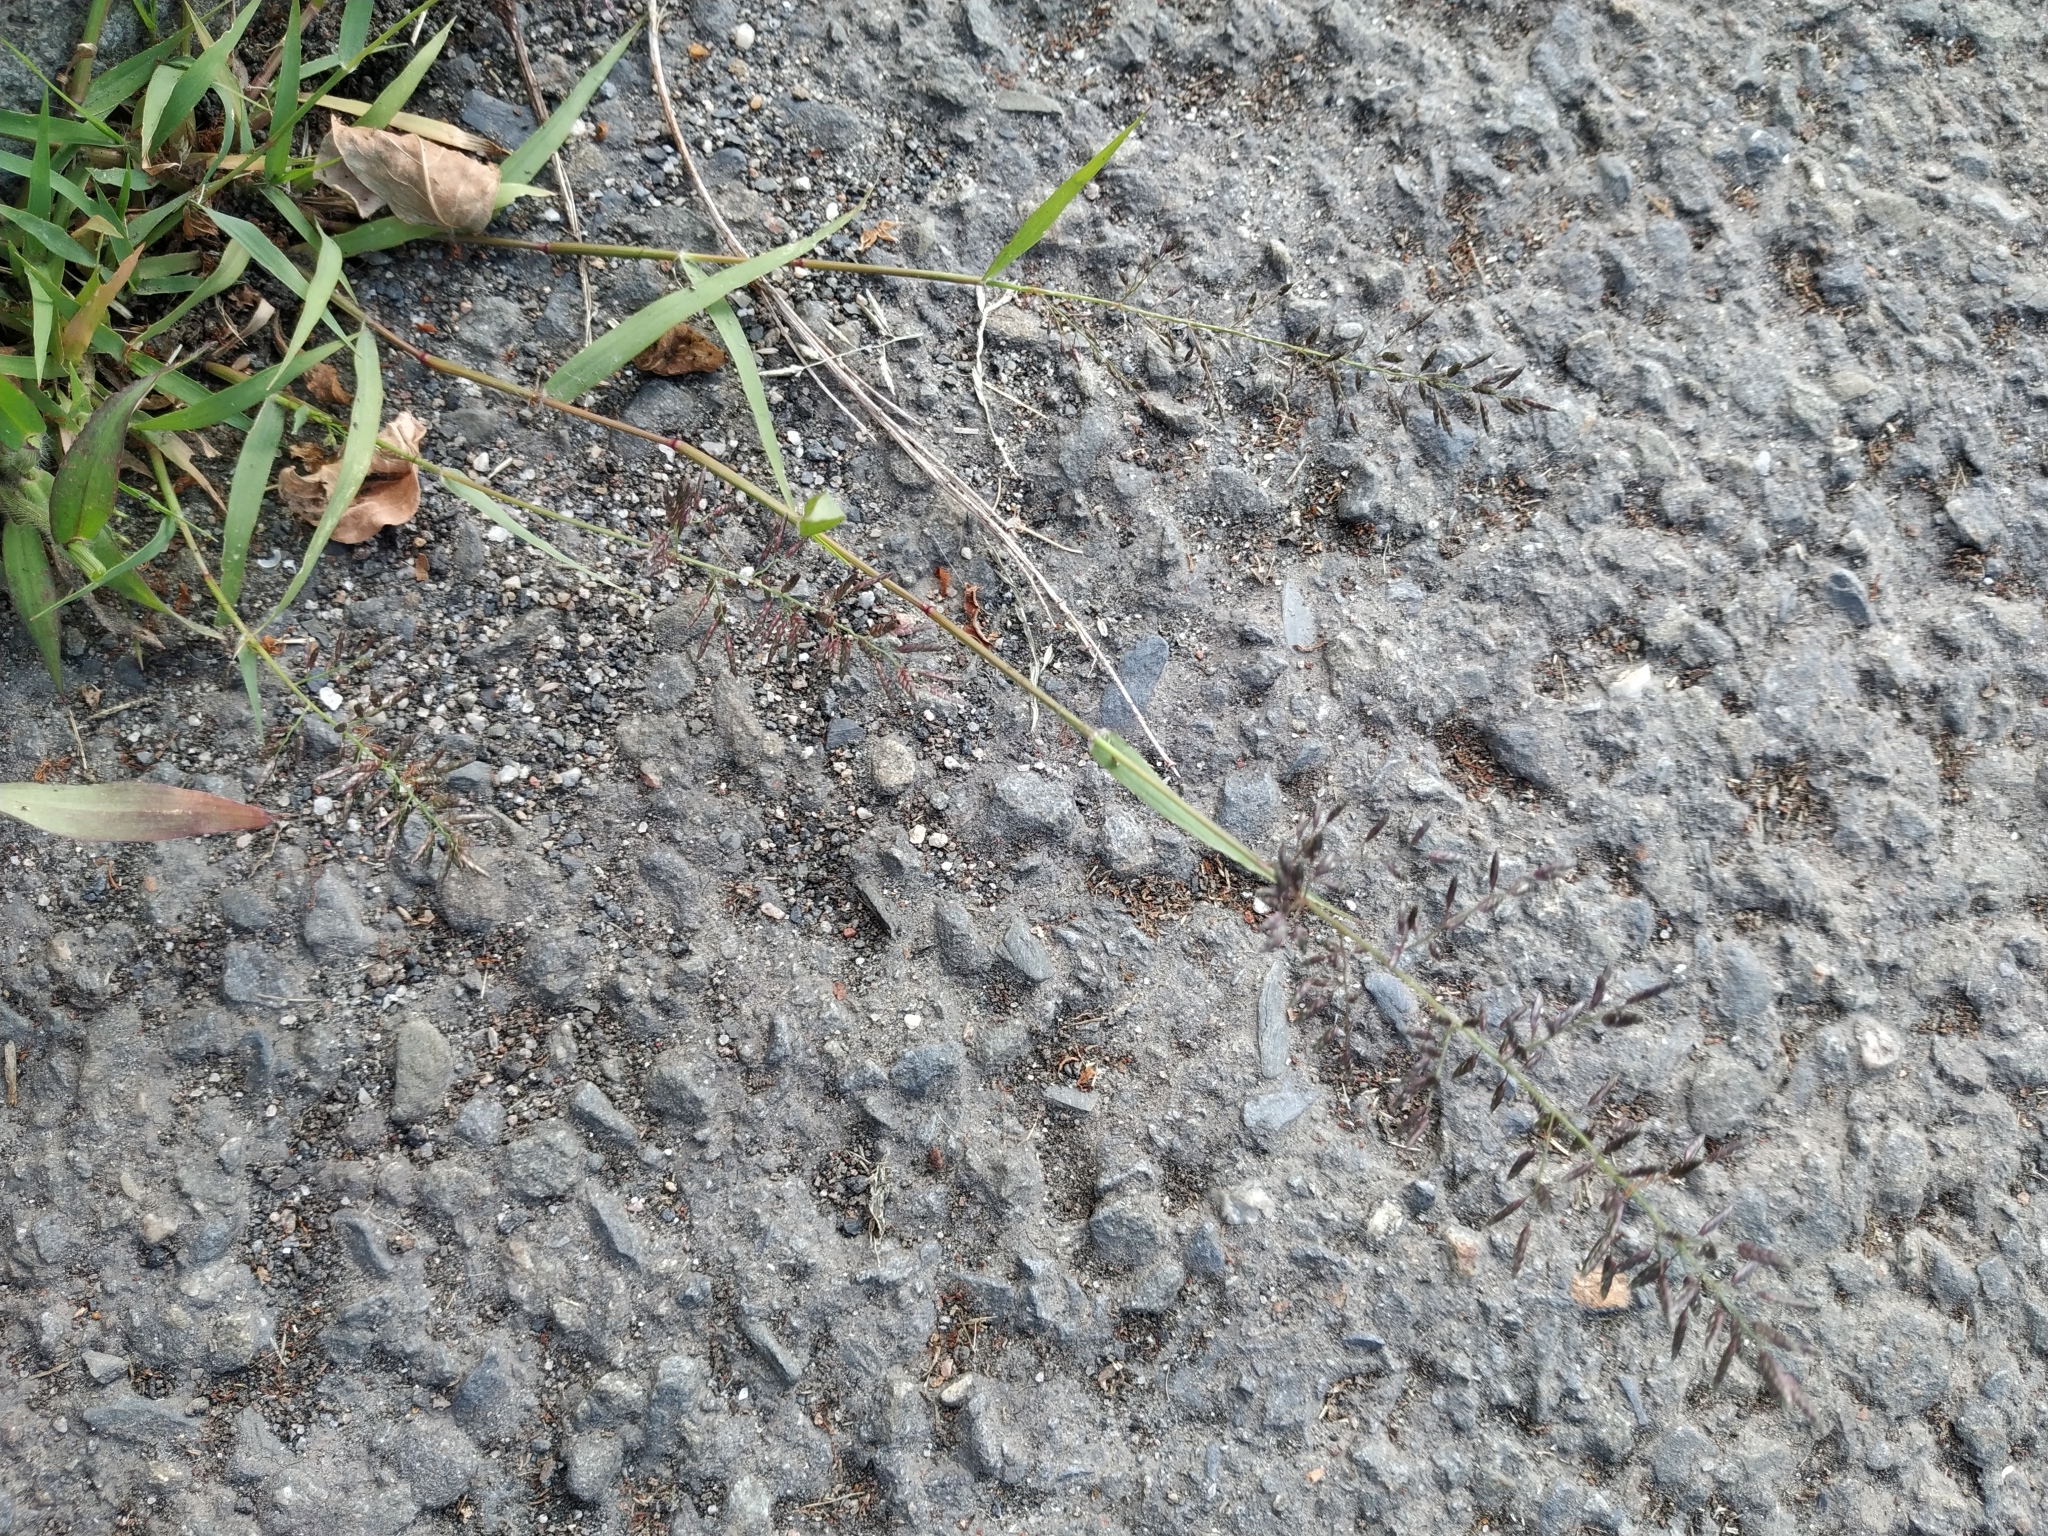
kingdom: Plantae
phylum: Tracheophyta
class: Liliopsida
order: Poales
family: Poaceae
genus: Eragrostis
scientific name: Eragrostis minor
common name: Small love-grass
